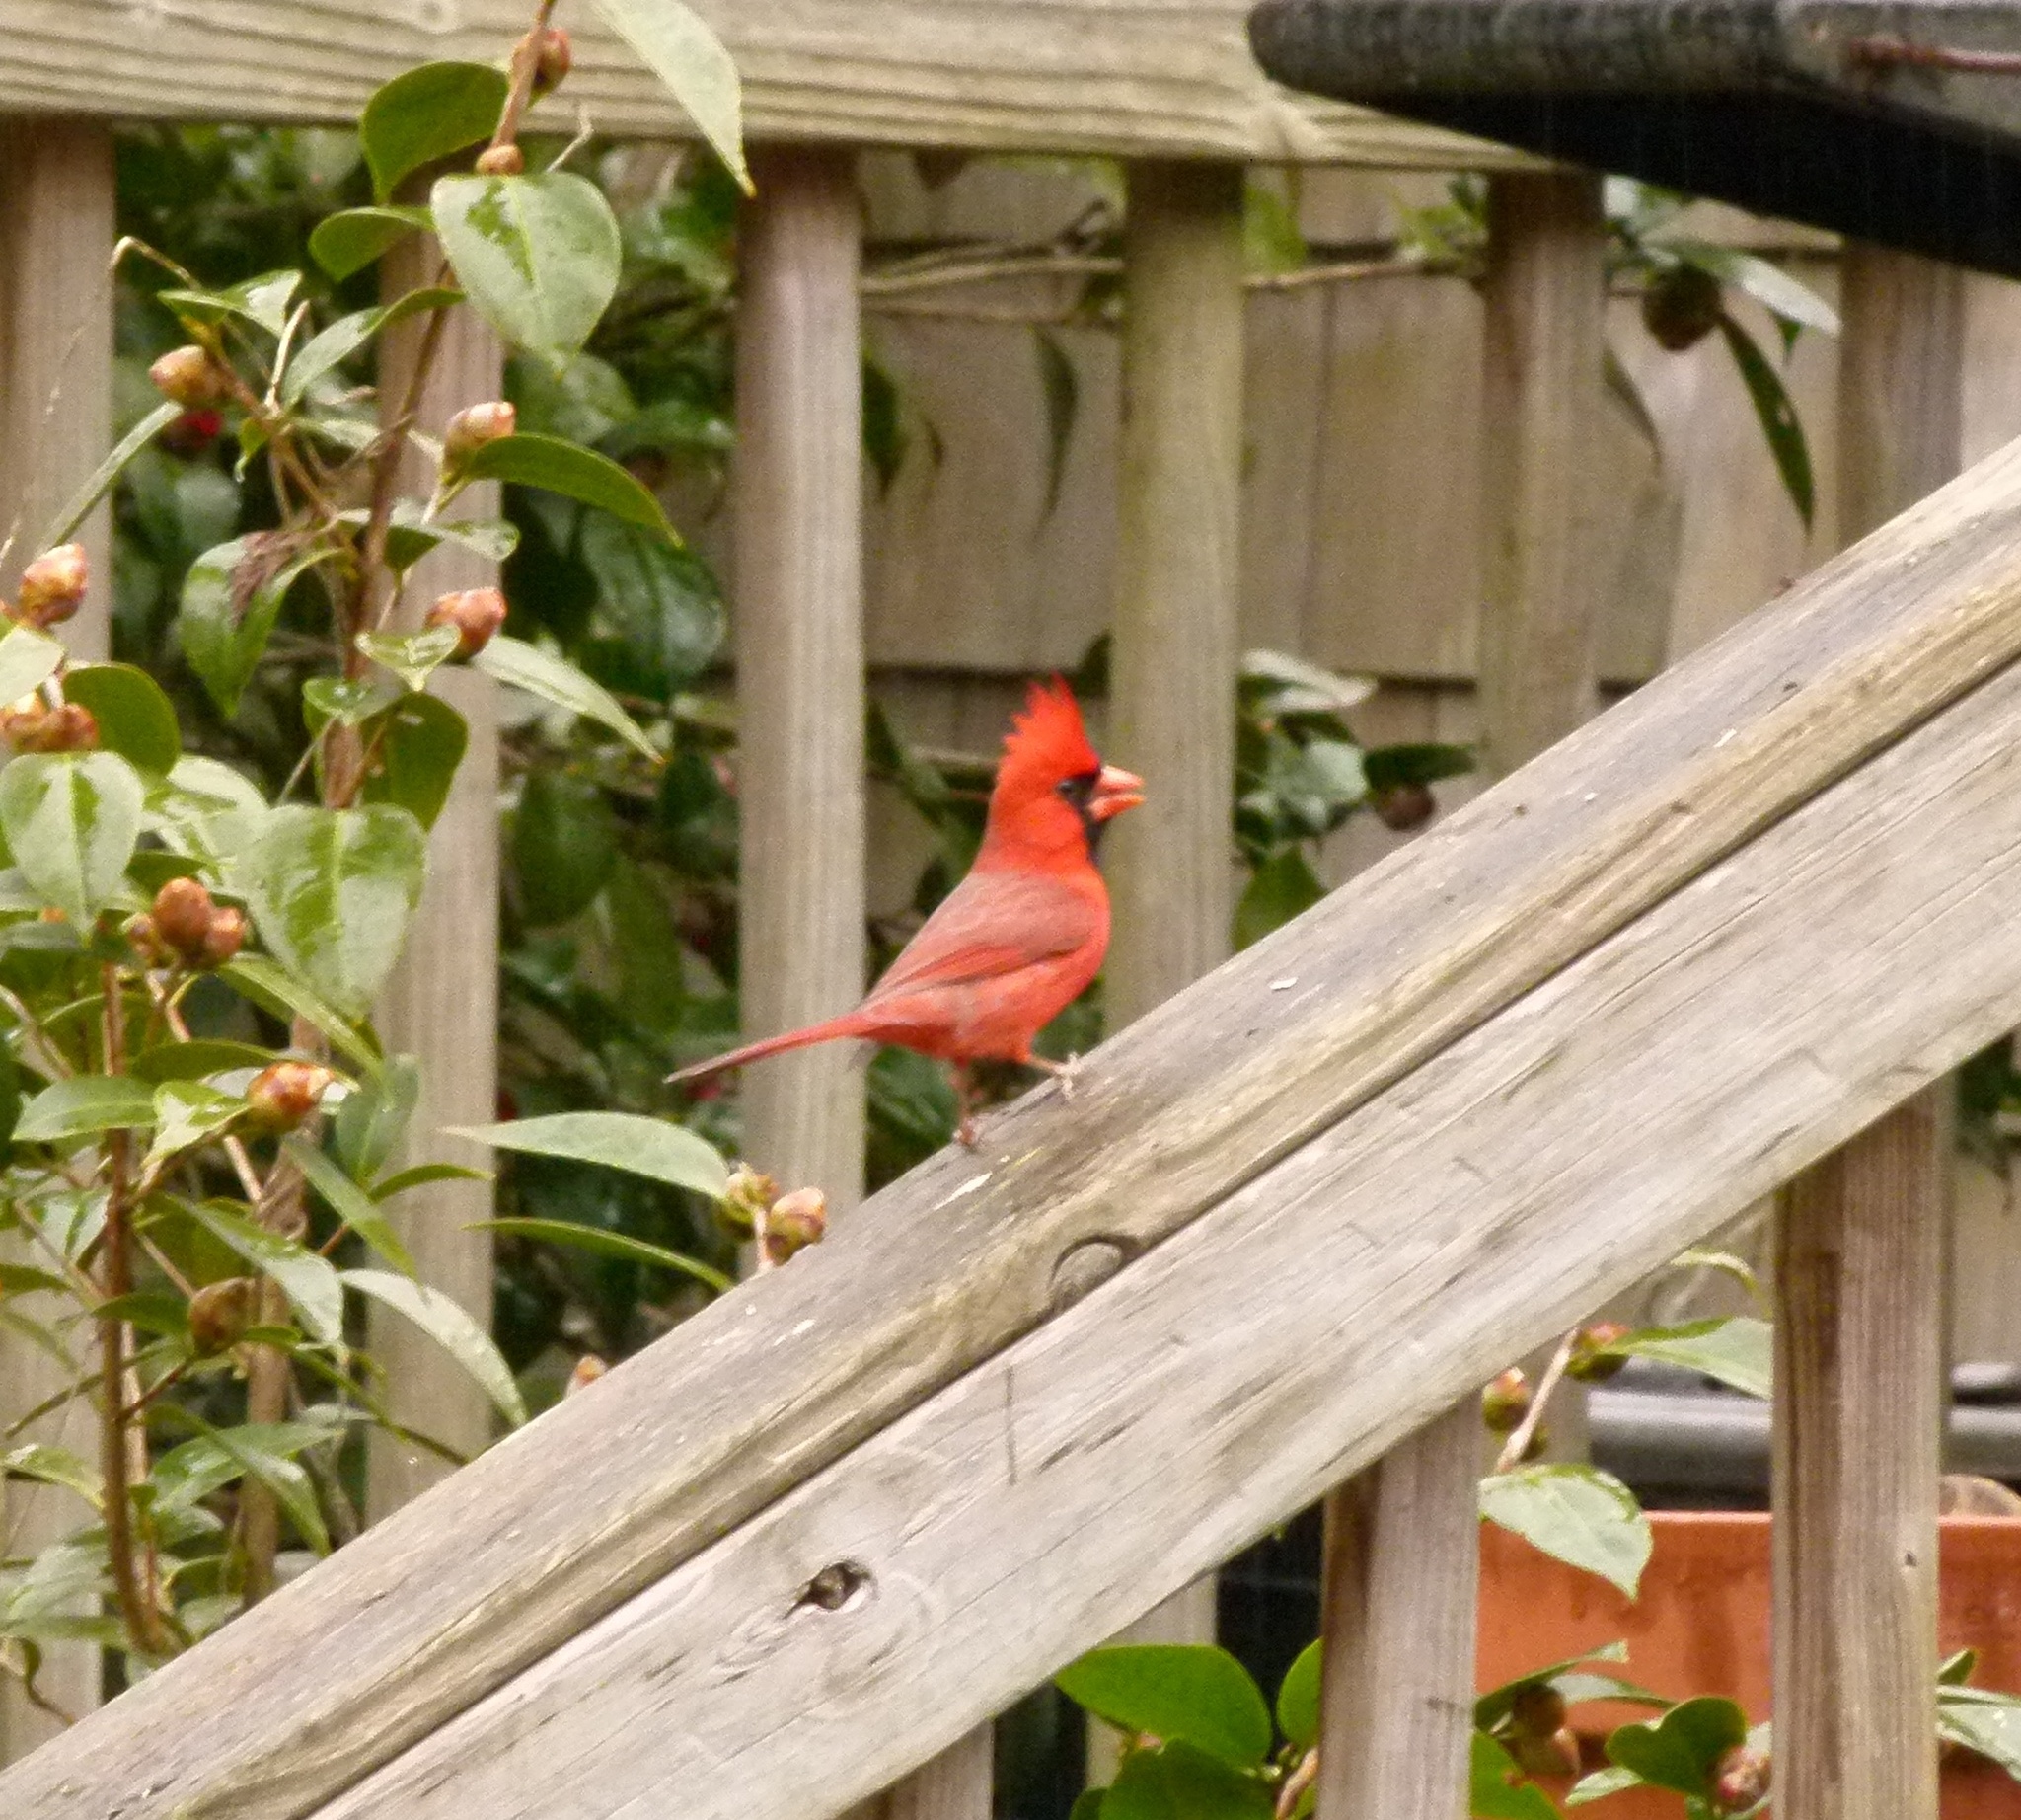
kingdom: Animalia
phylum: Chordata
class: Aves
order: Passeriformes
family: Cardinalidae
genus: Cardinalis
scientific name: Cardinalis cardinalis
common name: Northern cardinal
